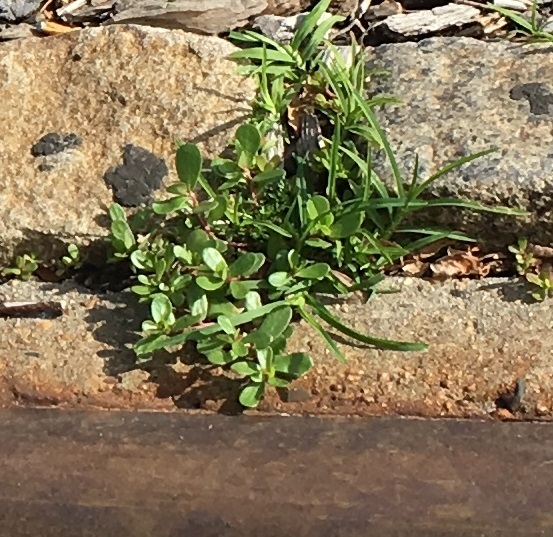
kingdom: Plantae
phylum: Tracheophyta
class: Magnoliopsida
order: Caryophyllales
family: Portulacaceae
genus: Portulaca
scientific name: Portulaca oleracea
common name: Common purslane
